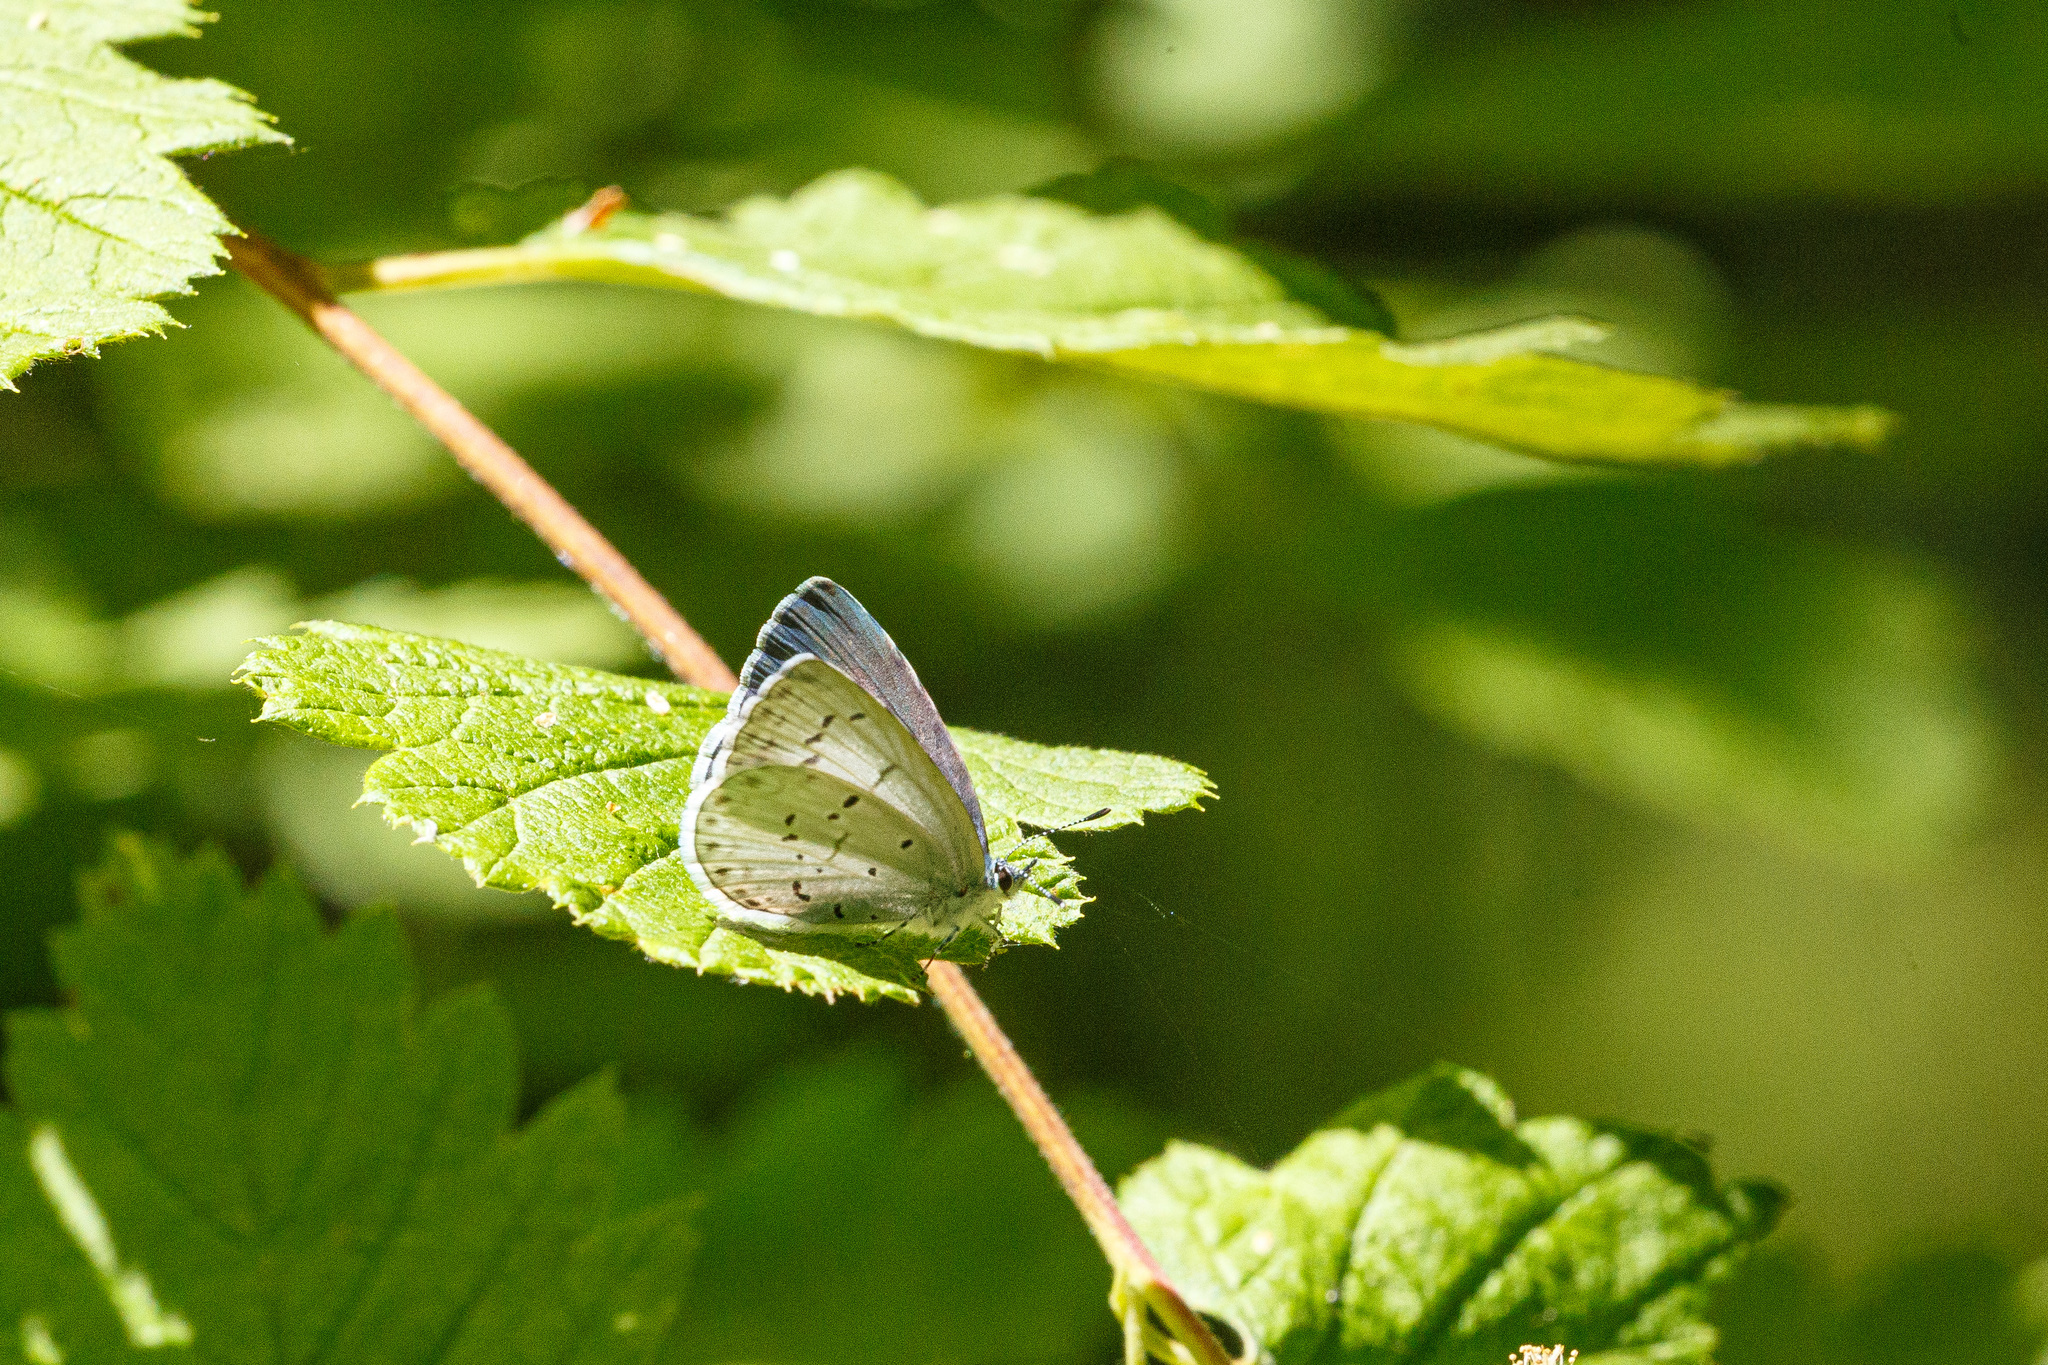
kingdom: Animalia
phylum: Arthropoda
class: Insecta
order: Lepidoptera
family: Lycaenidae
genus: Celastrina
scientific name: Celastrina ladon
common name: Spring azure
